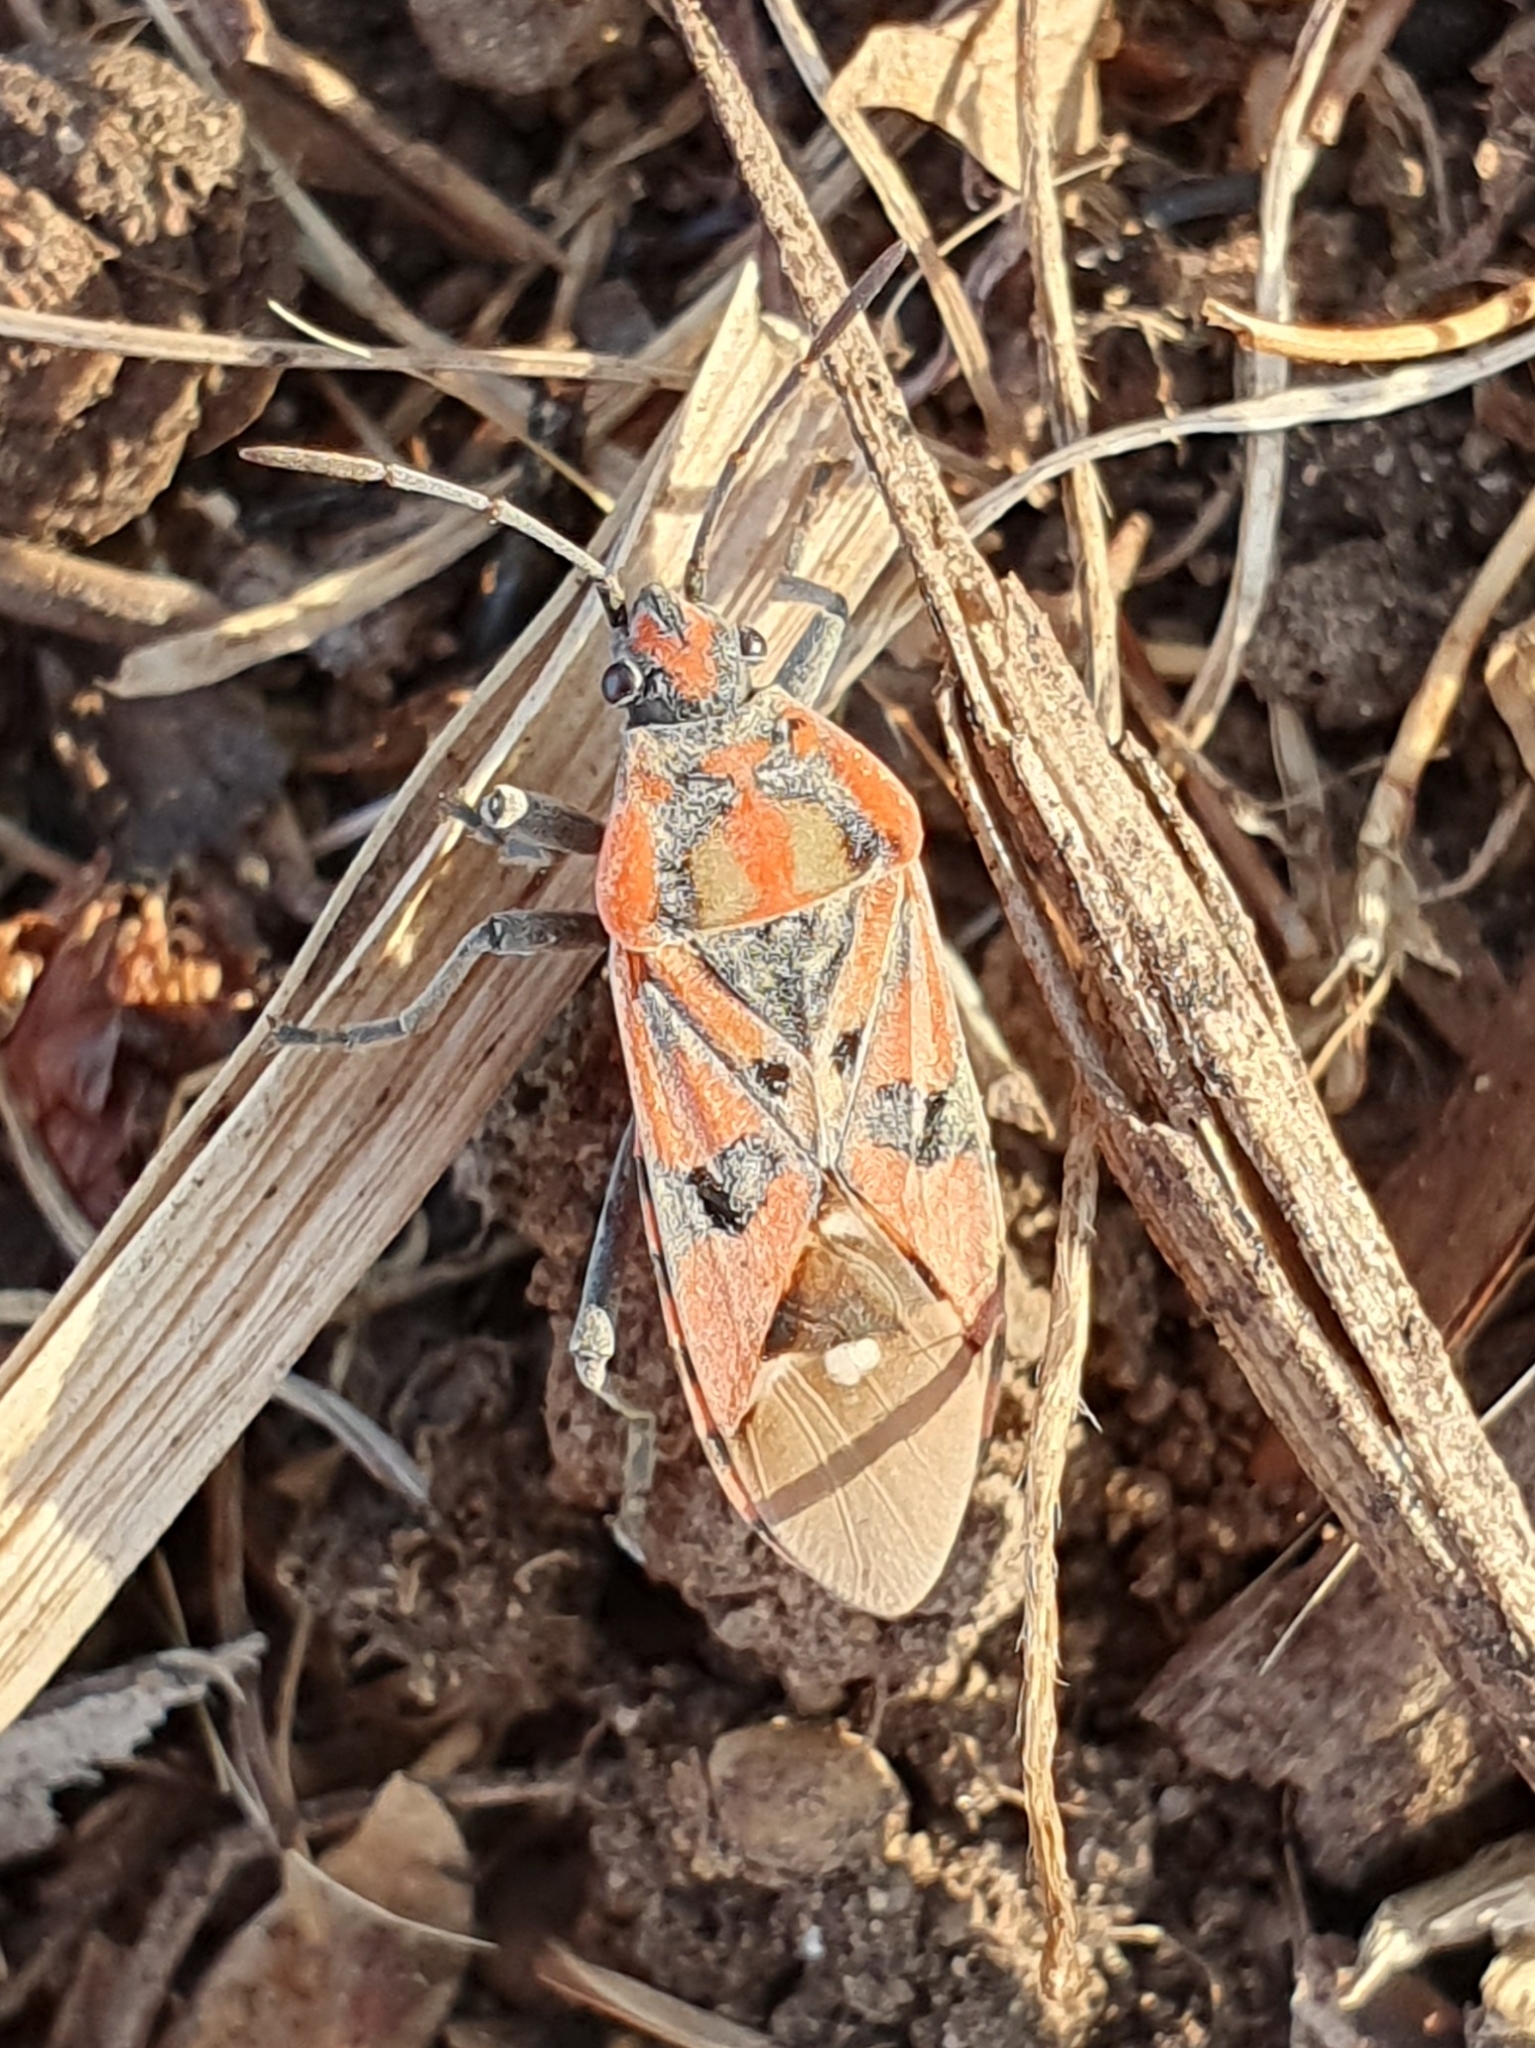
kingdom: Animalia
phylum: Arthropoda
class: Insecta
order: Hemiptera
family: Lygaeidae
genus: Spilostethus
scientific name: Spilostethus pandurus
